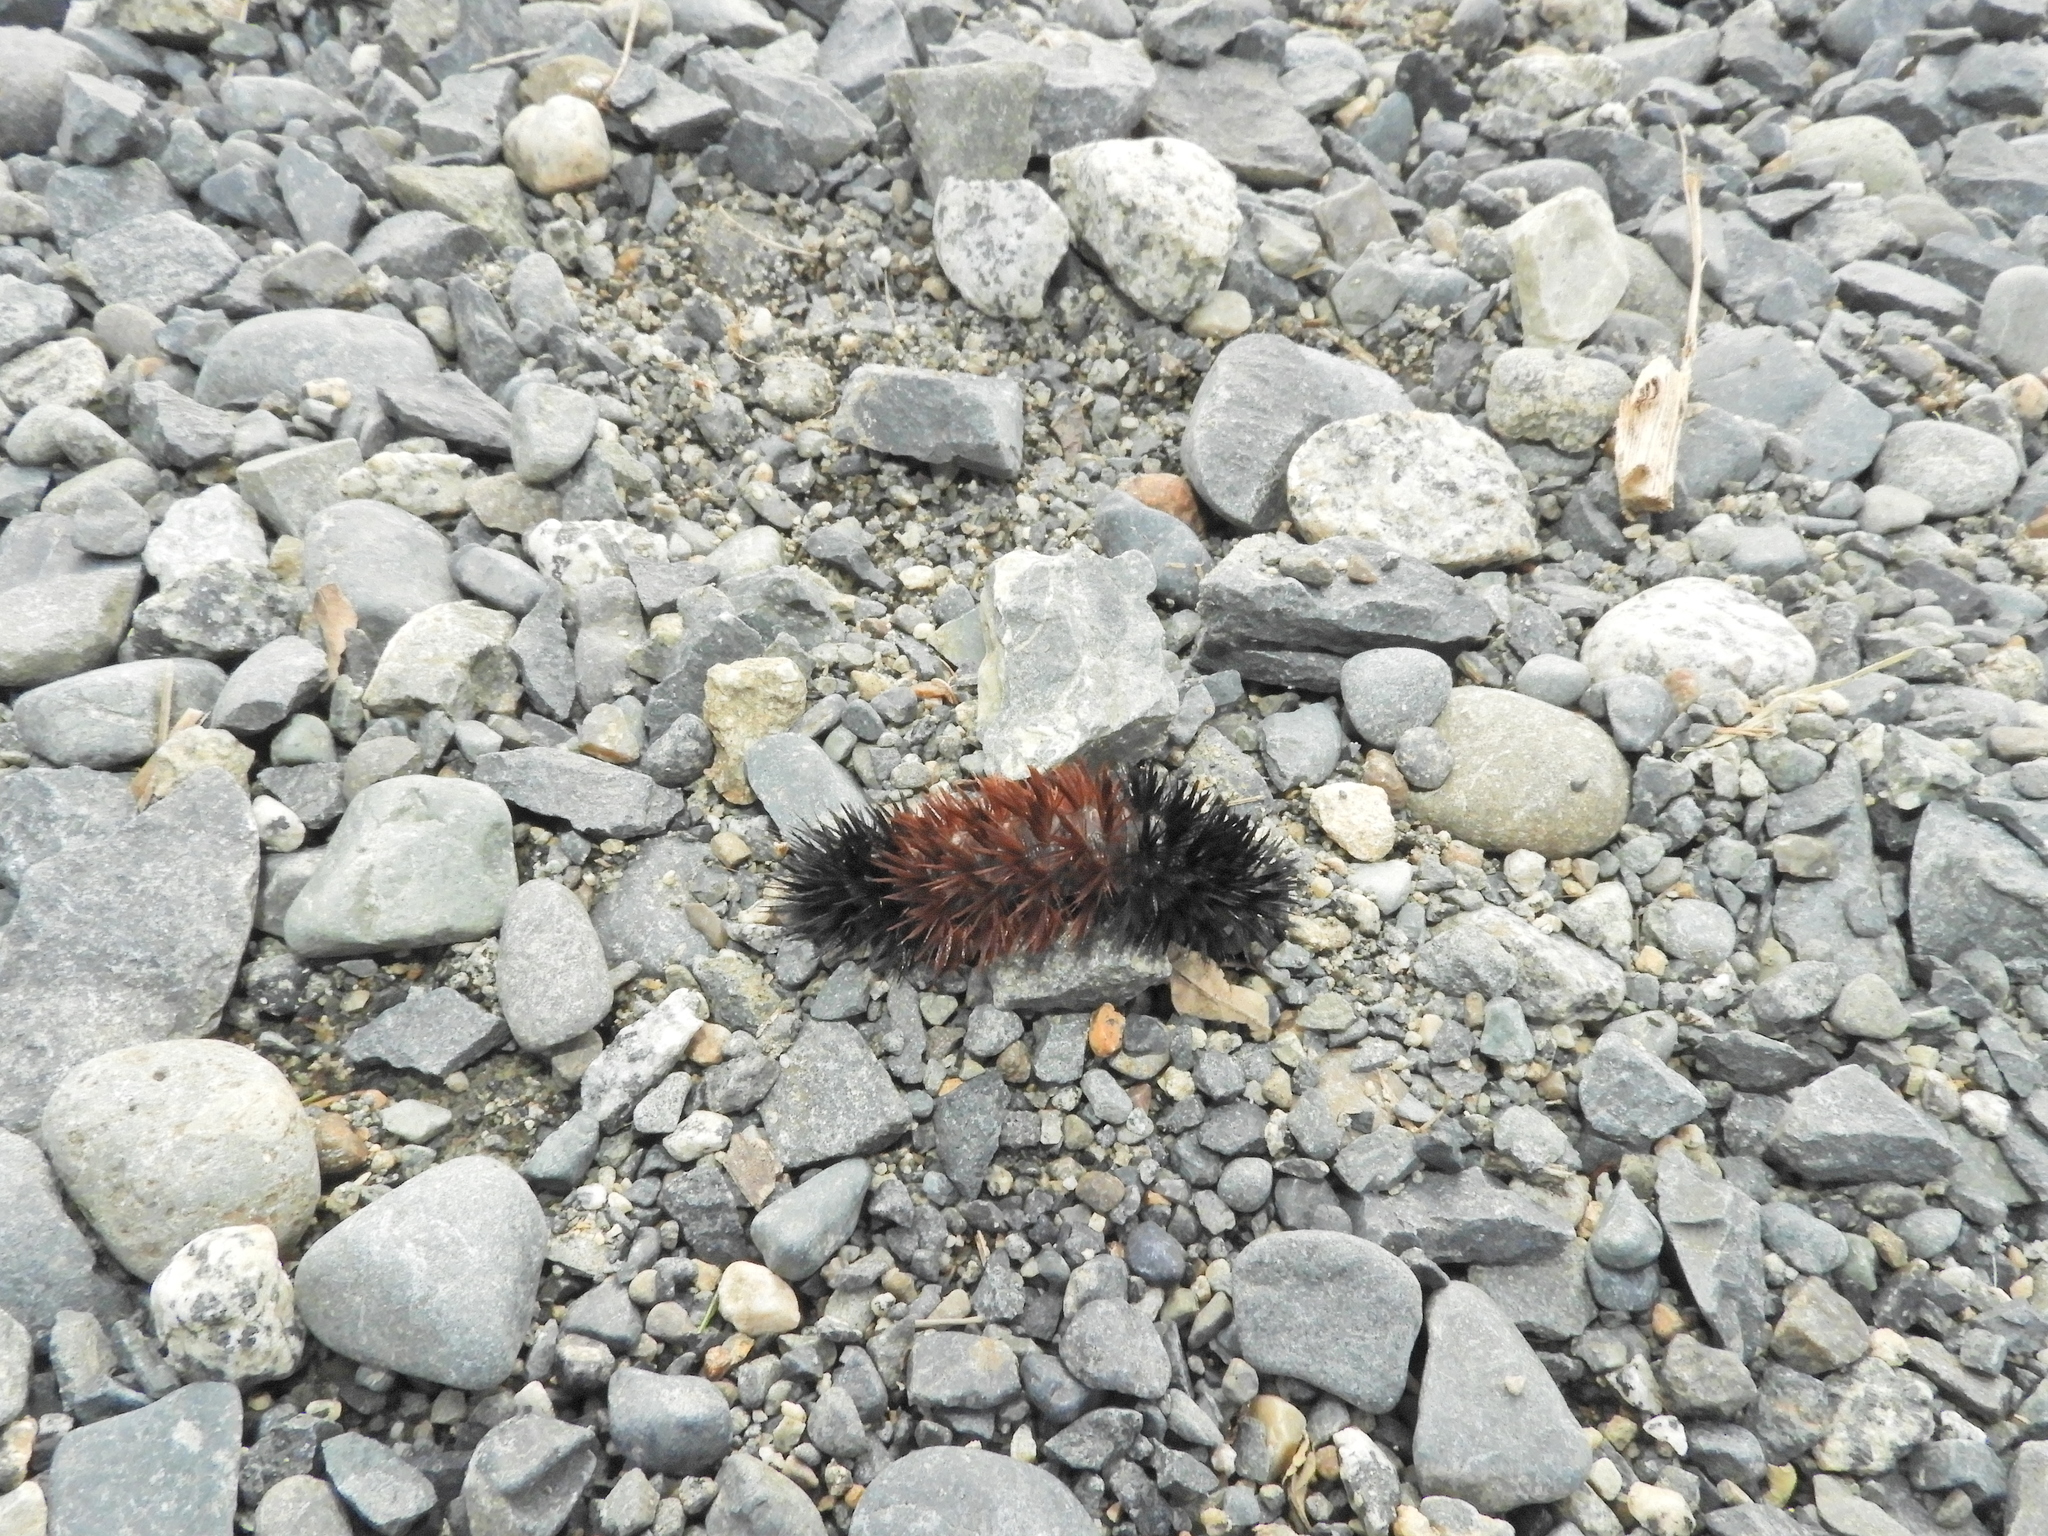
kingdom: Animalia
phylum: Arthropoda
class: Insecta
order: Lepidoptera
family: Erebidae
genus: Pyrrharctia
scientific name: Pyrrharctia isabella
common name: Isabella tiger moth
